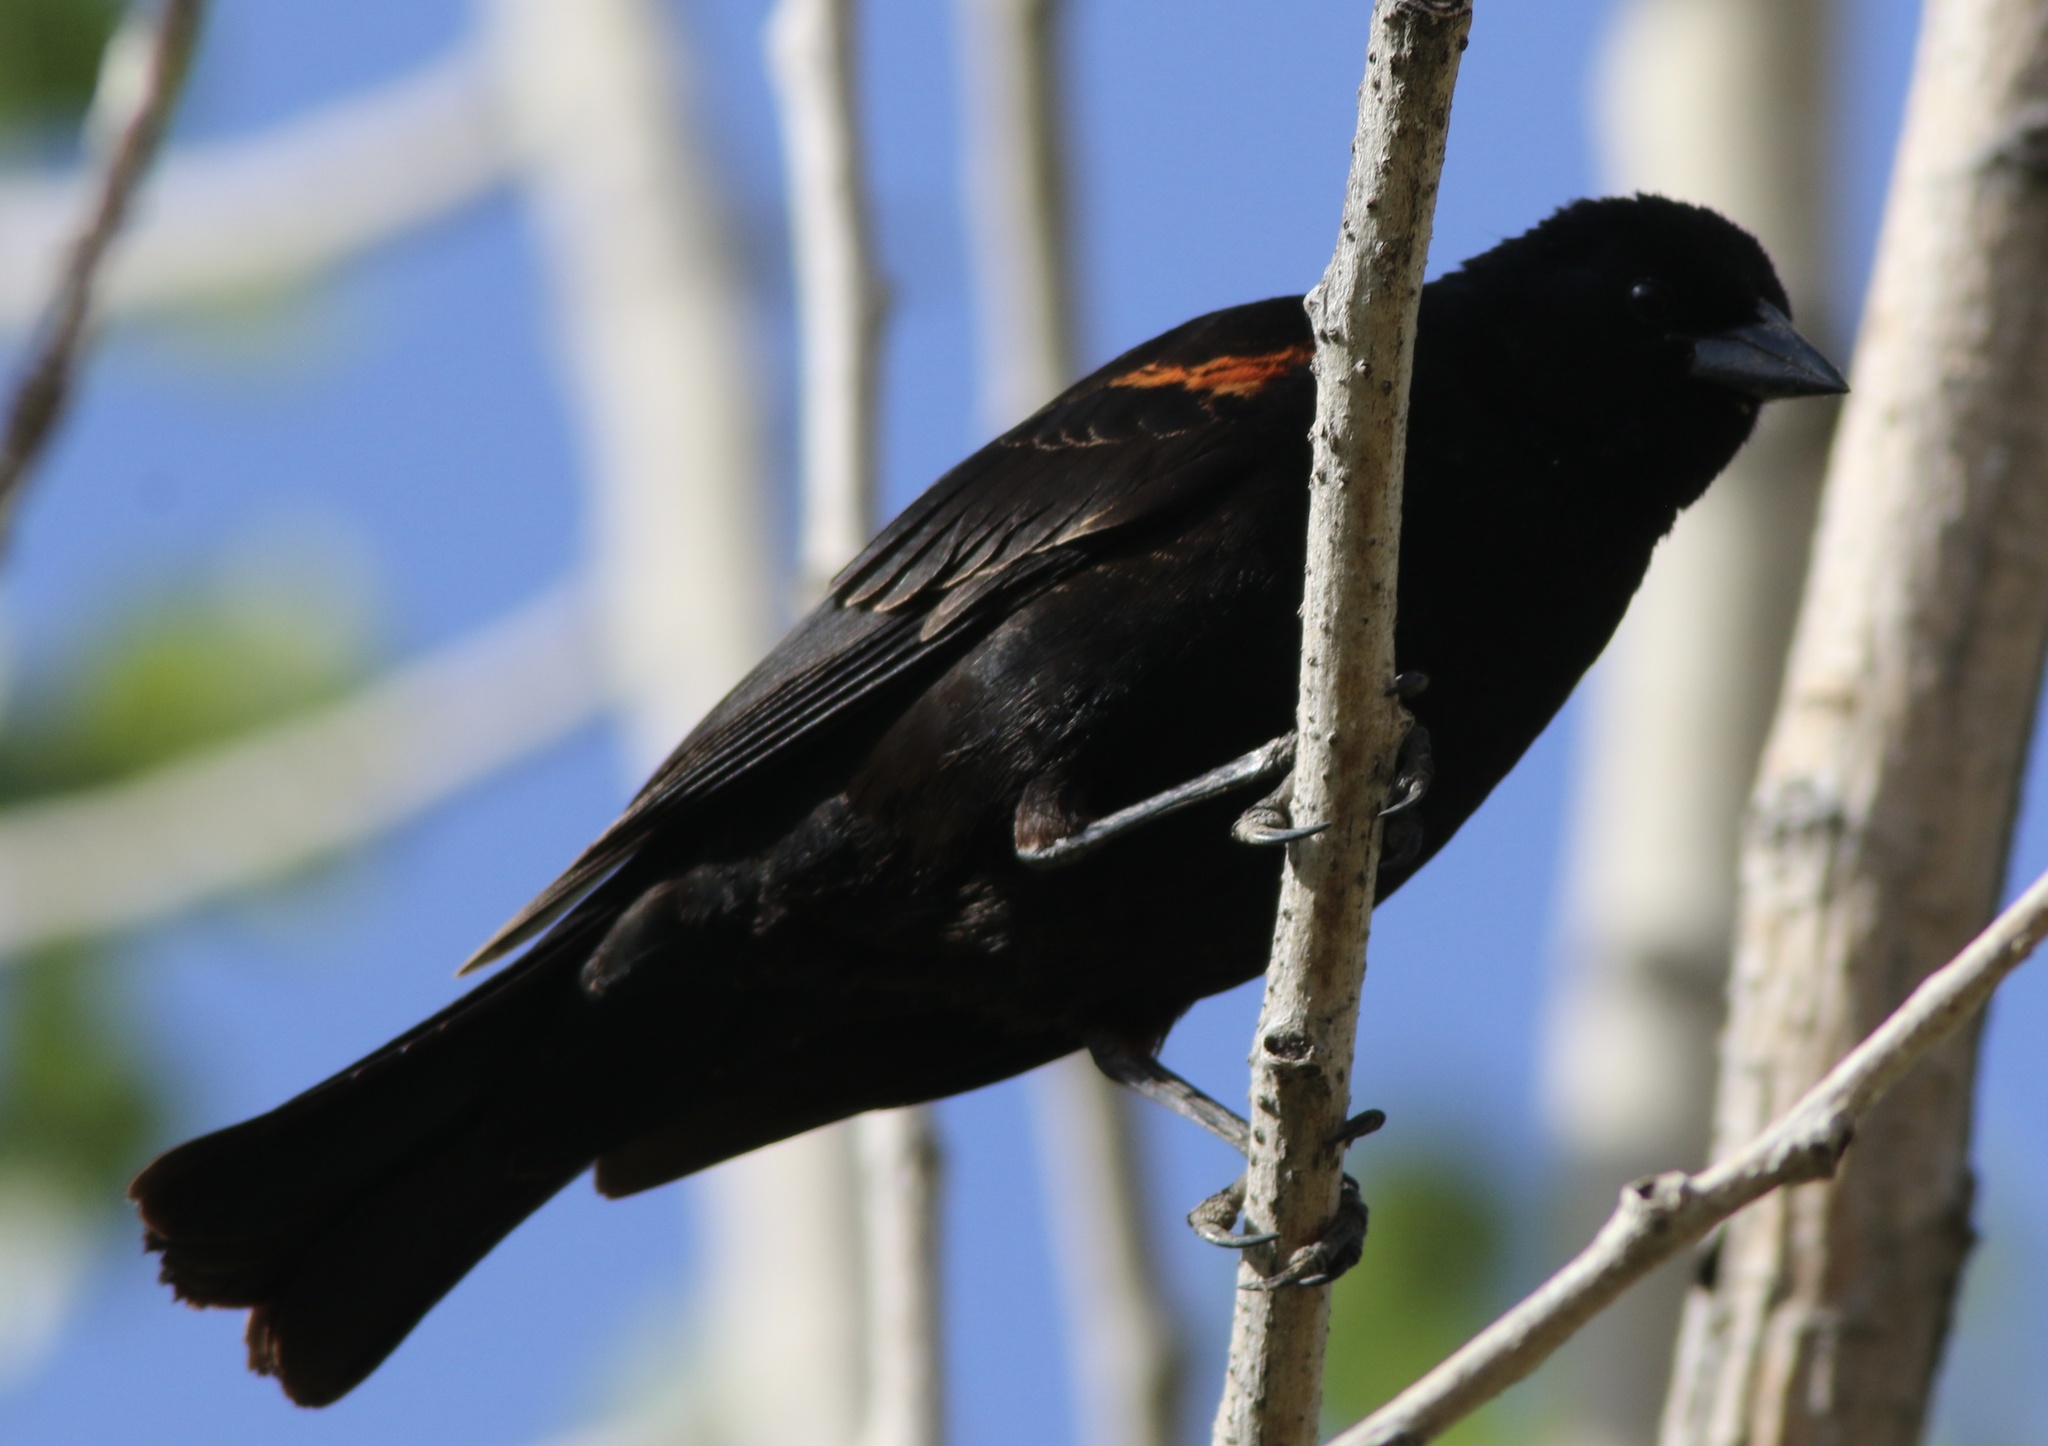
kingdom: Animalia
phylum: Chordata
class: Aves
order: Passeriformes
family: Icteridae
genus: Agelaius
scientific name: Agelaius phoeniceus
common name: Red-winged blackbird
